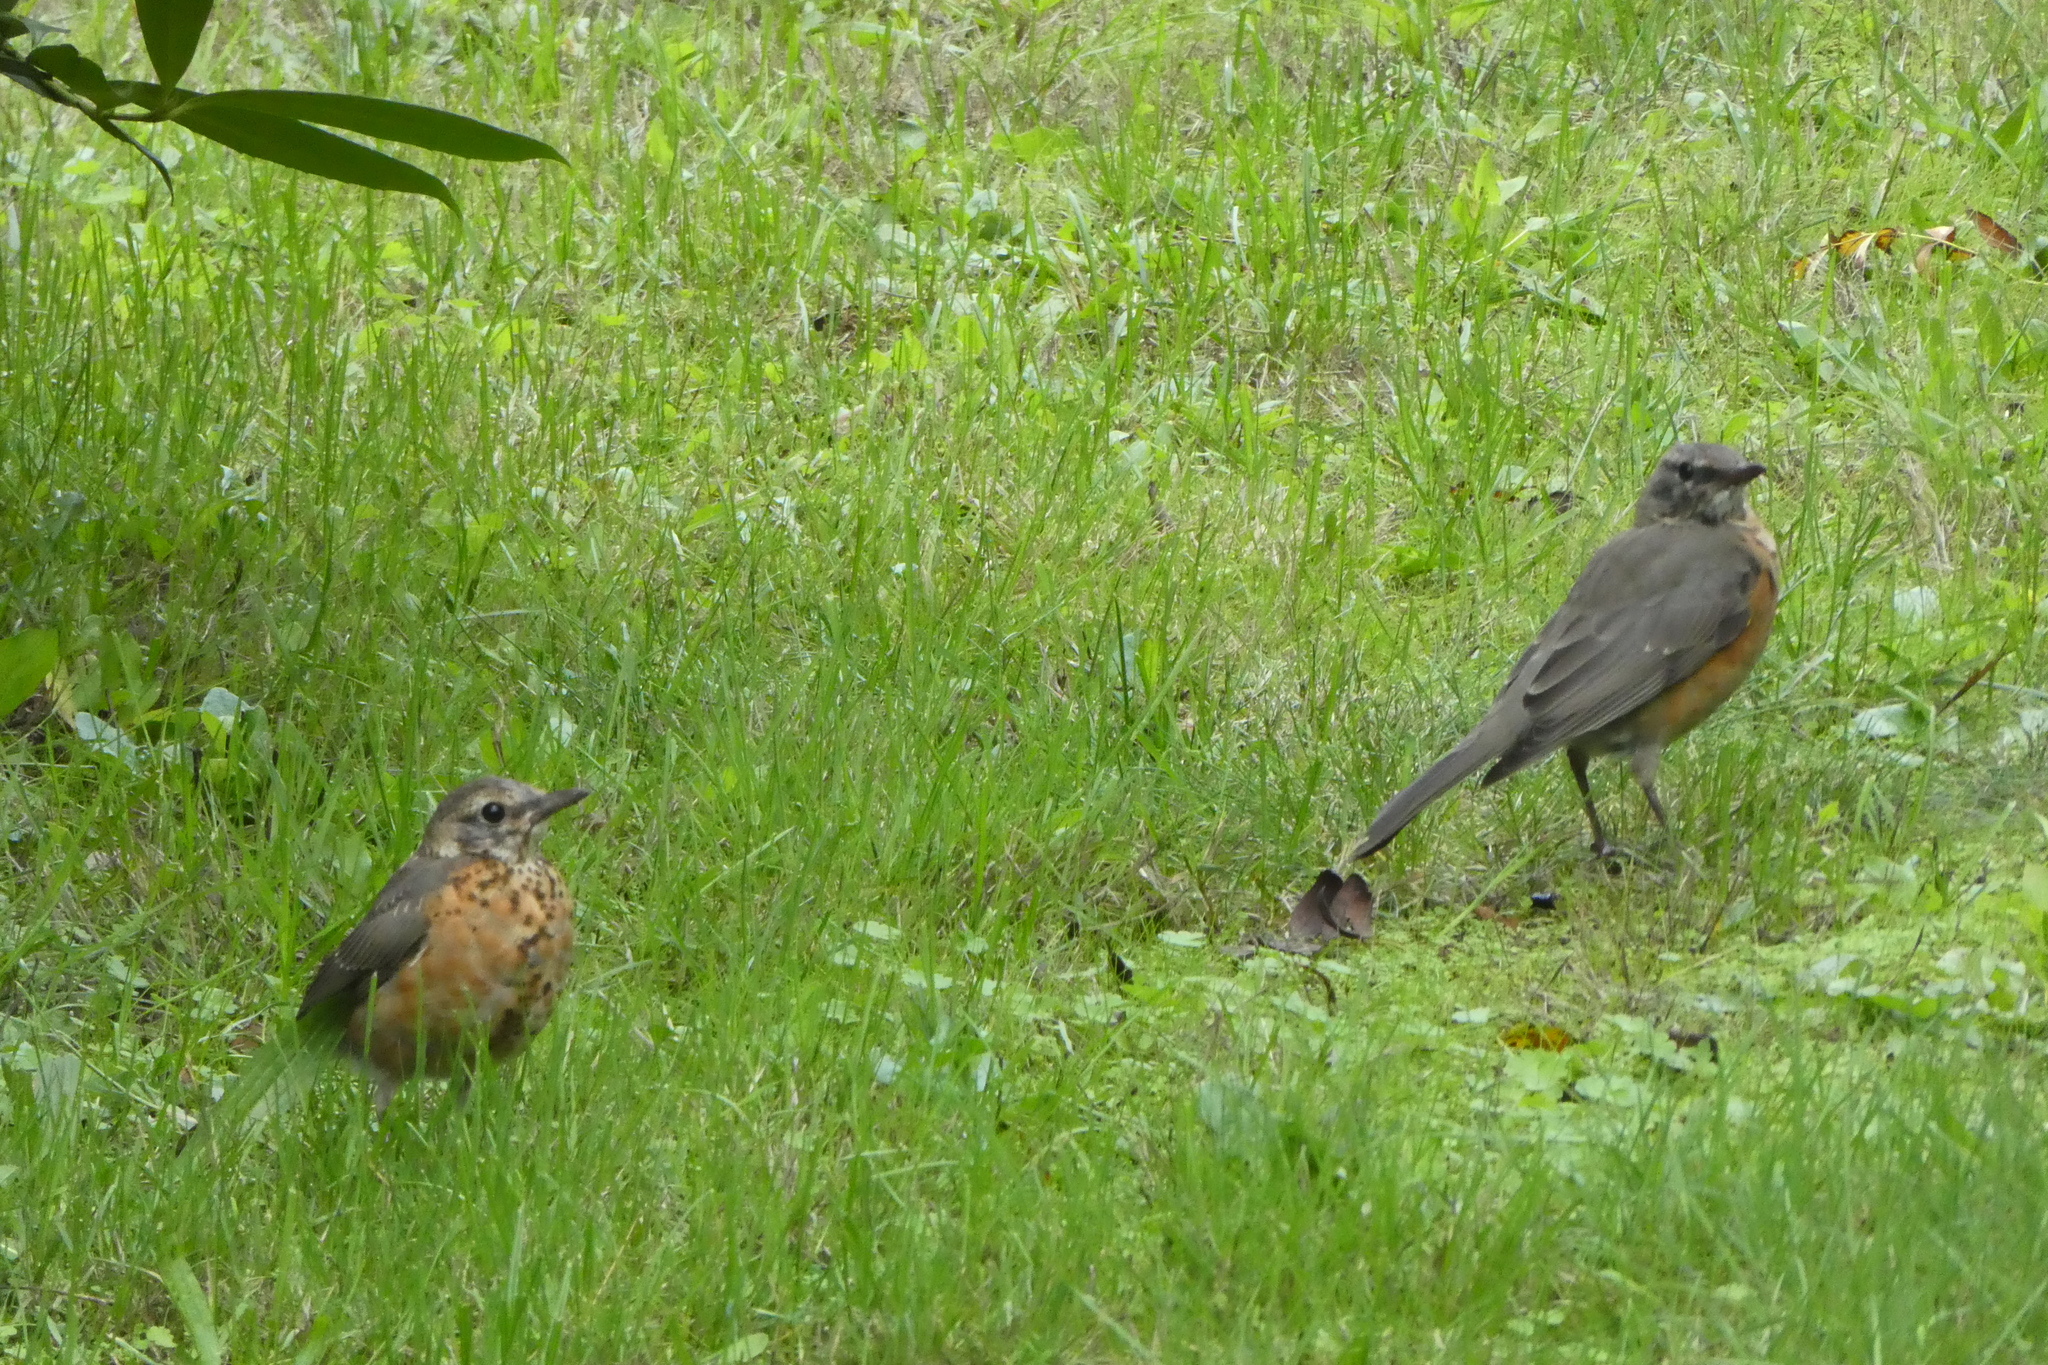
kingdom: Animalia
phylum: Chordata
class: Aves
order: Passeriformes
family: Turdidae
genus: Turdus
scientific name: Turdus migratorius
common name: American robin
